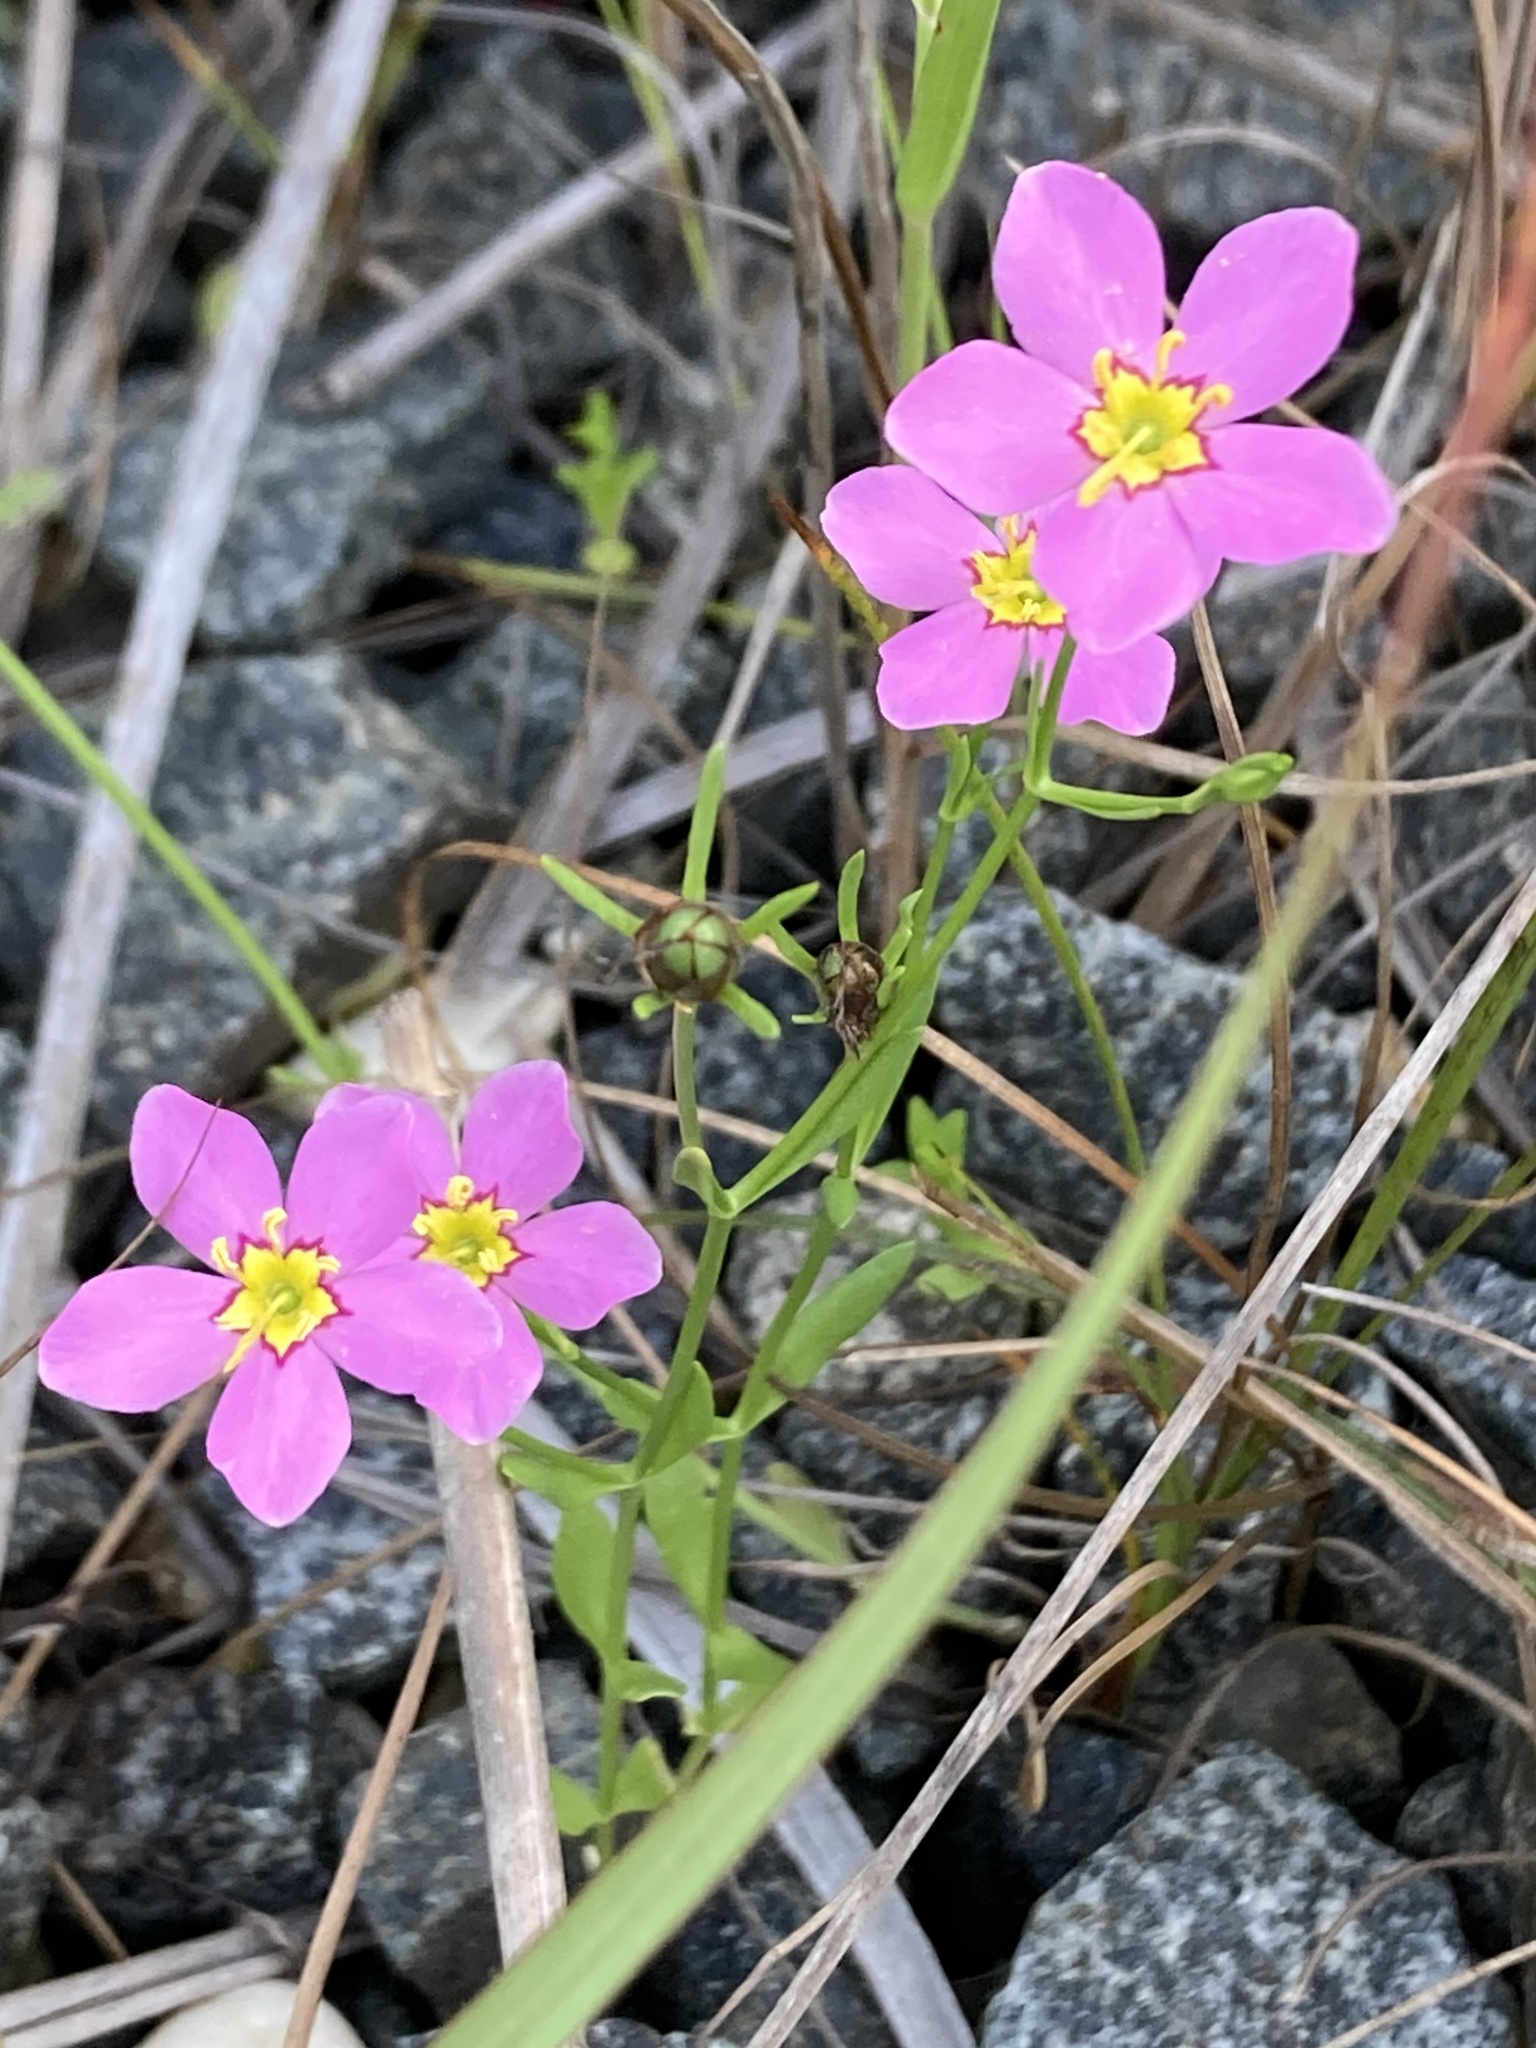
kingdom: Plantae
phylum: Tracheophyta
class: Magnoliopsida
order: Gentianales
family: Gentianaceae
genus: Sabatia
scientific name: Sabatia stellaris
